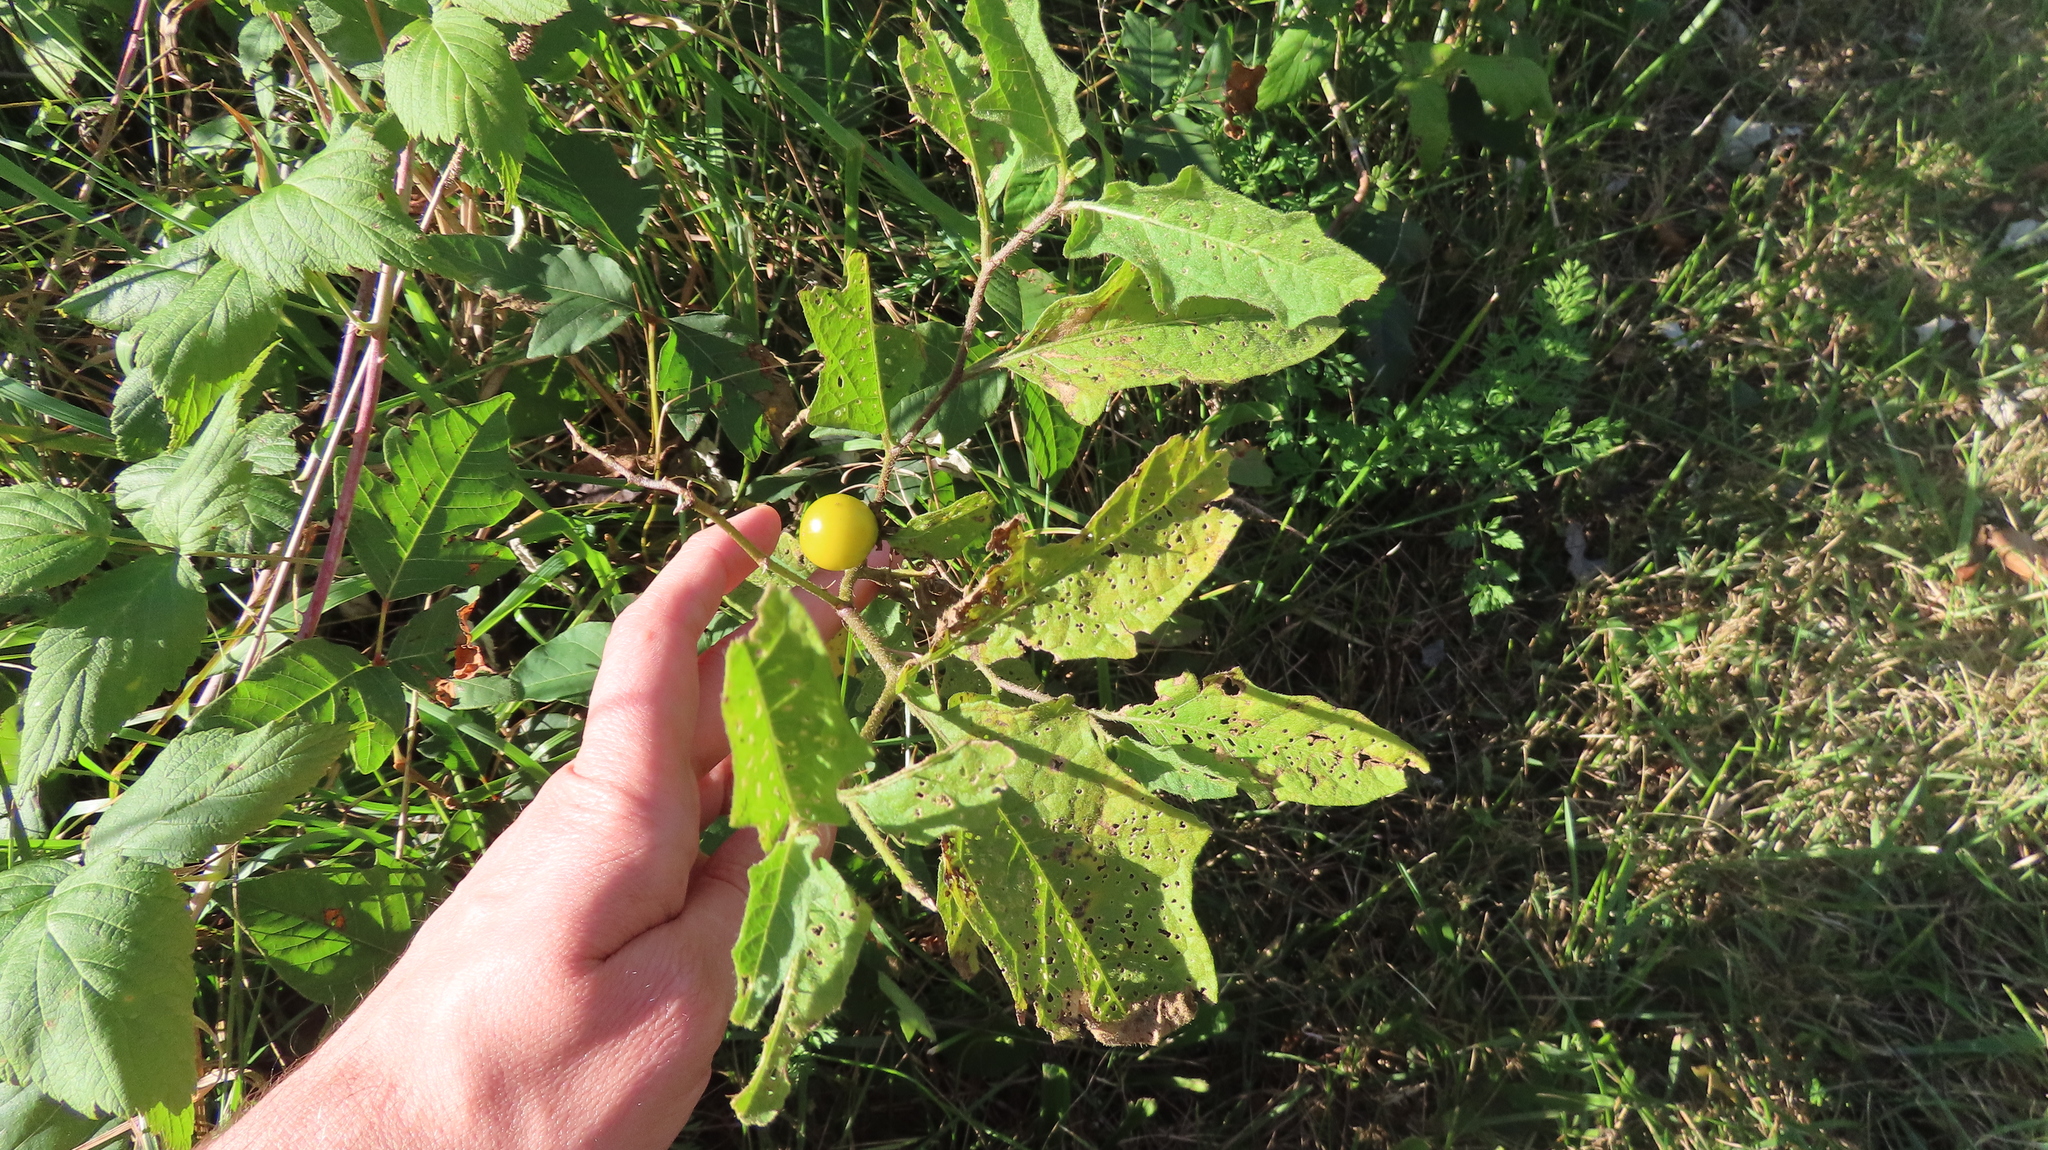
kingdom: Plantae
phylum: Tracheophyta
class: Magnoliopsida
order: Solanales
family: Solanaceae
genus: Solanum
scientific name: Solanum carolinense
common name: Horse-nettle
